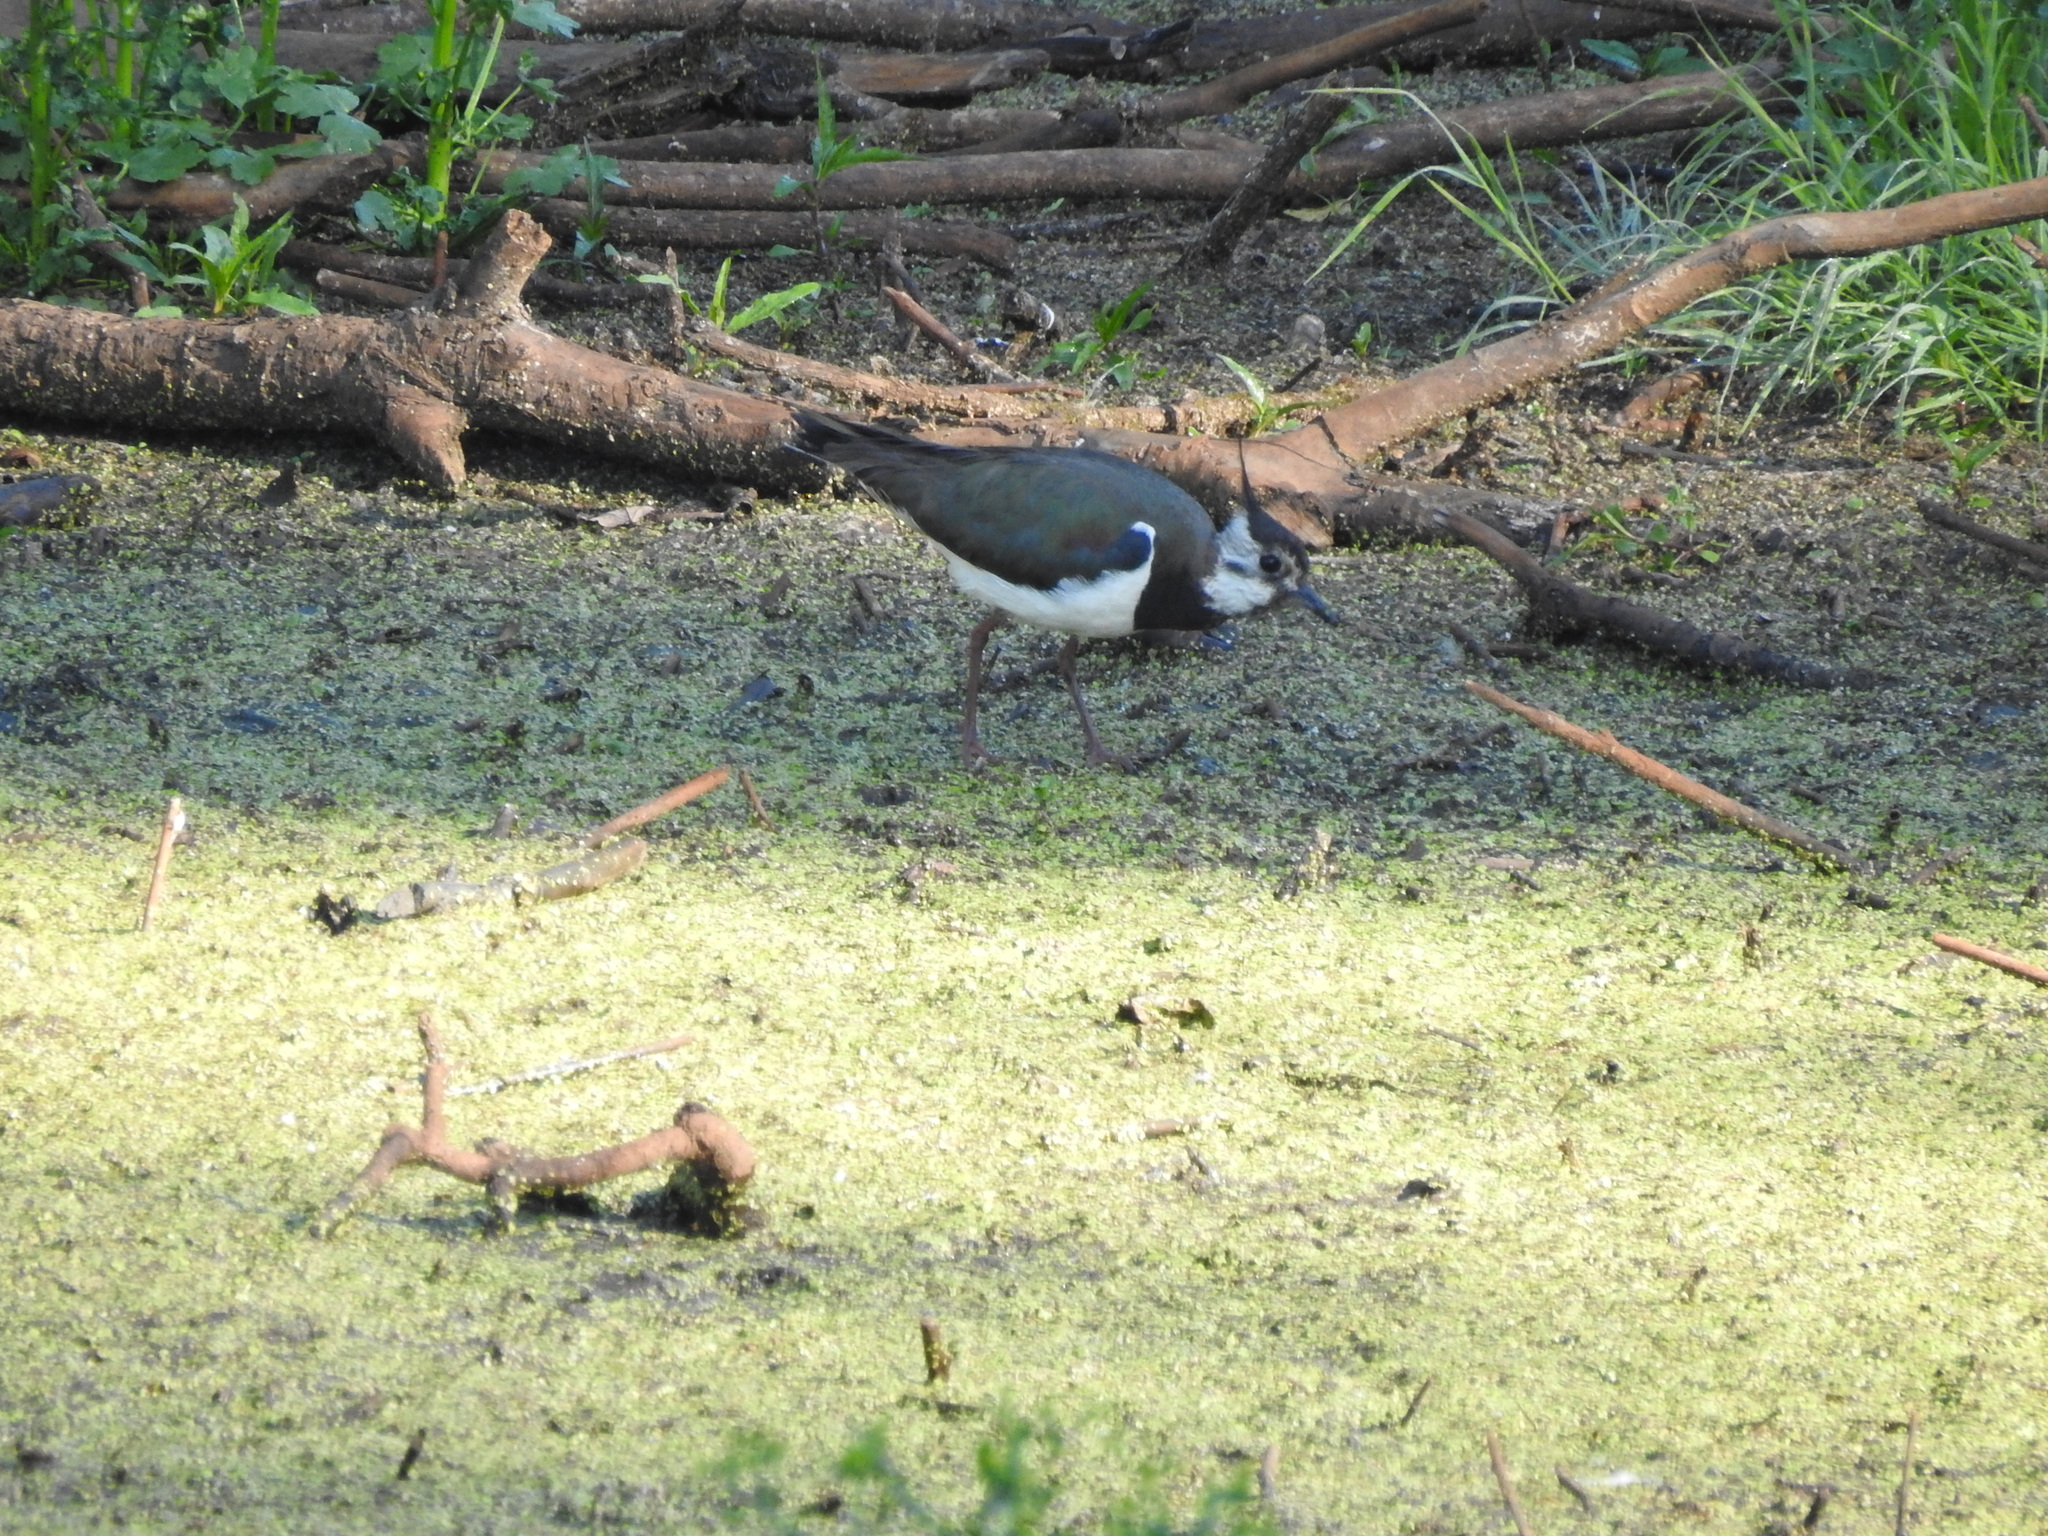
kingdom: Animalia
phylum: Chordata
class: Aves
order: Charadriiformes
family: Charadriidae
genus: Vanellus
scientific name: Vanellus vanellus
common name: Northern lapwing
